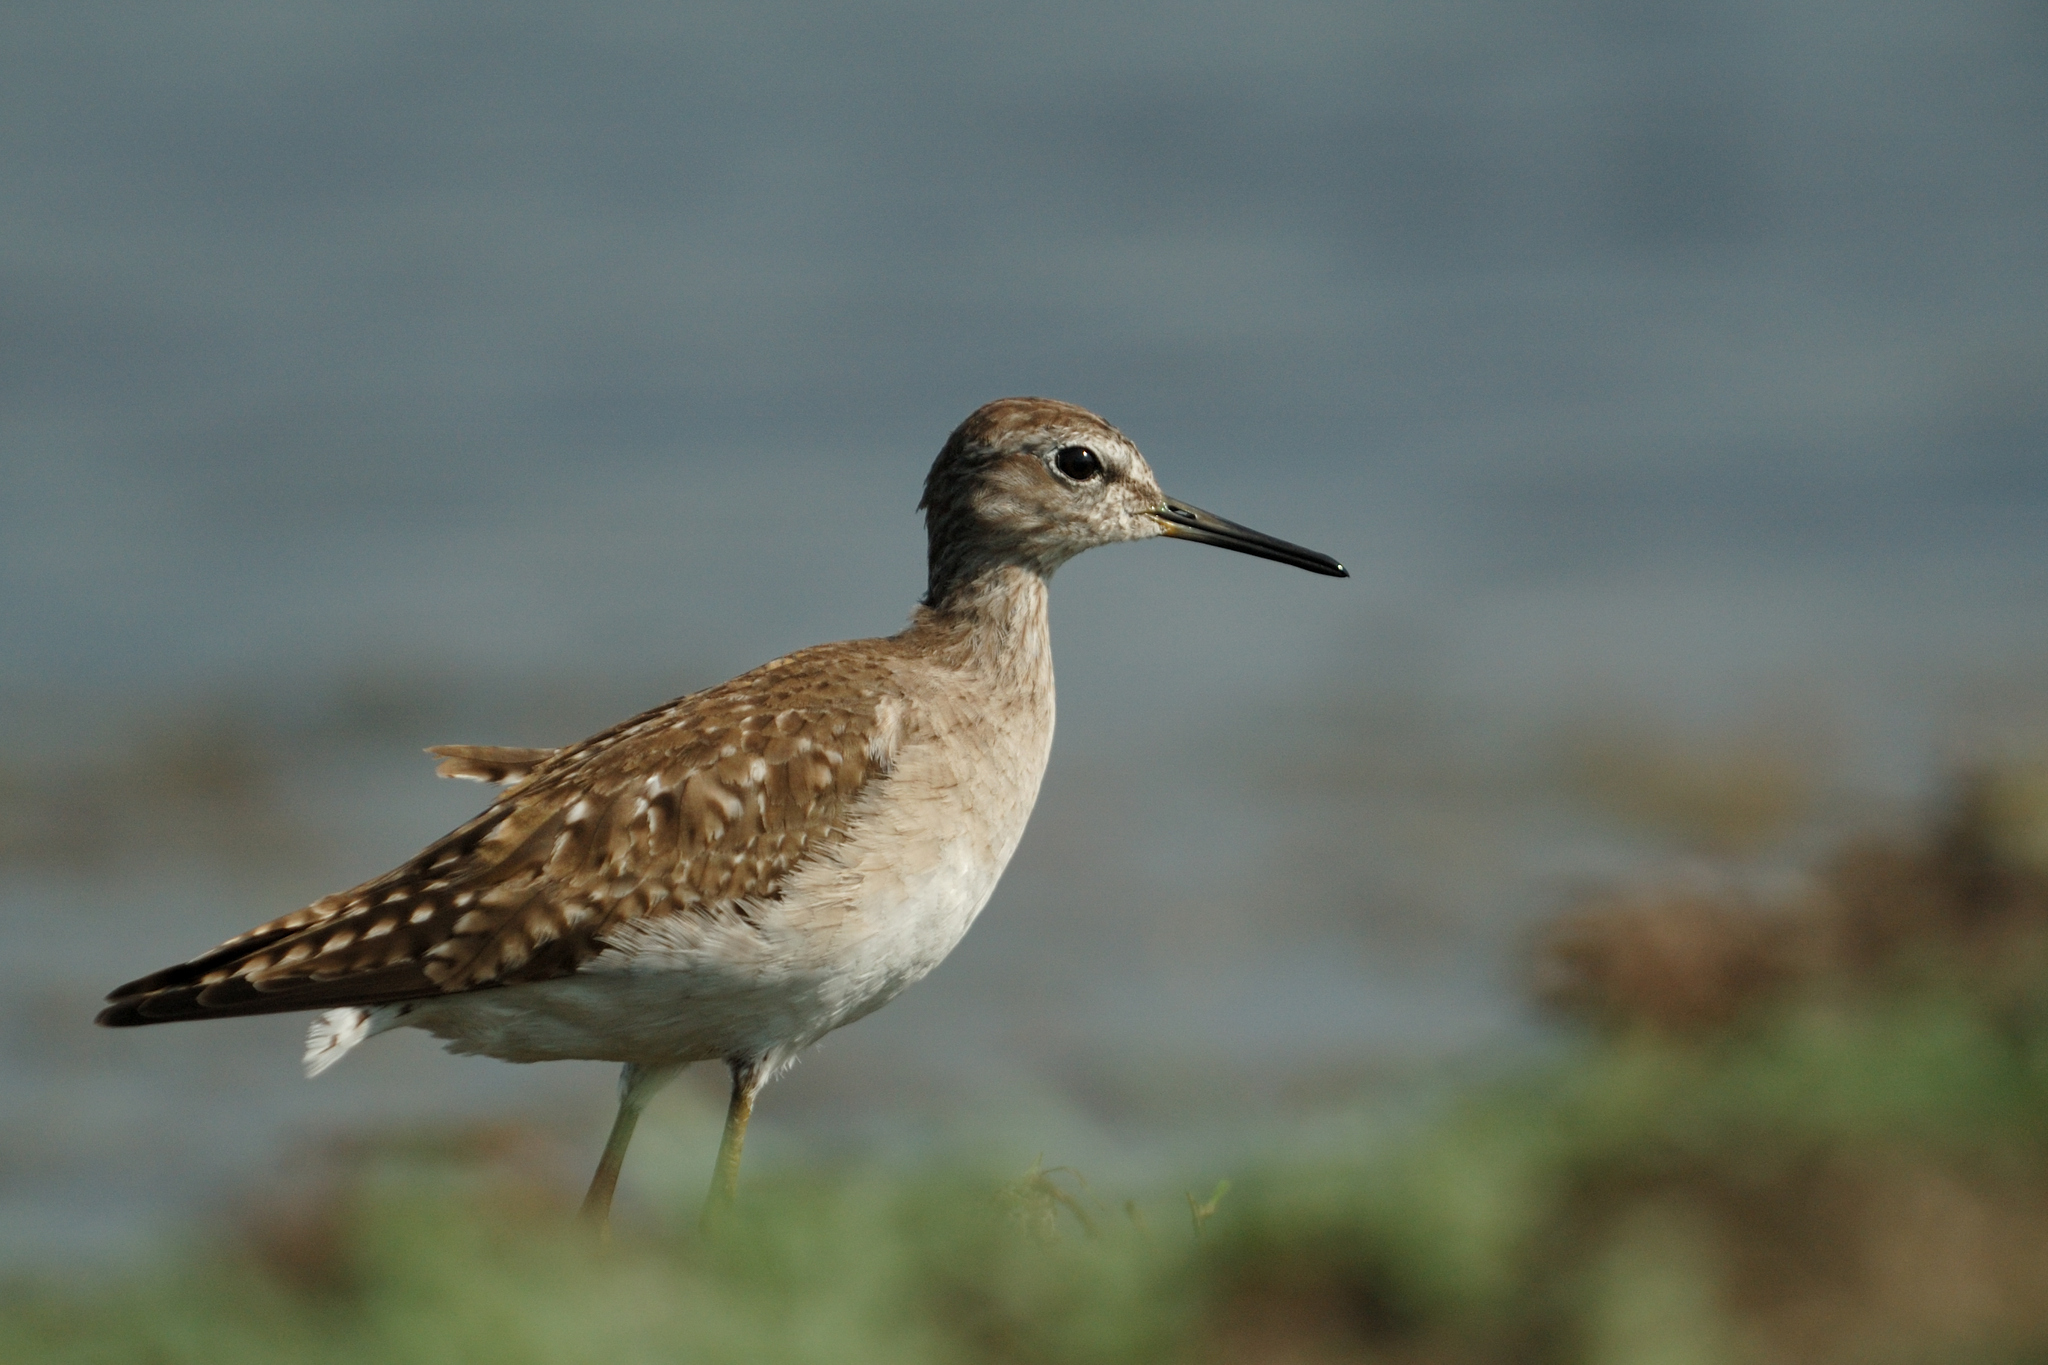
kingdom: Animalia
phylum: Chordata
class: Aves
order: Charadriiformes
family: Scolopacidae
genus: Tringa
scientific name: Tringa glareola
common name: Wood sandpiper
